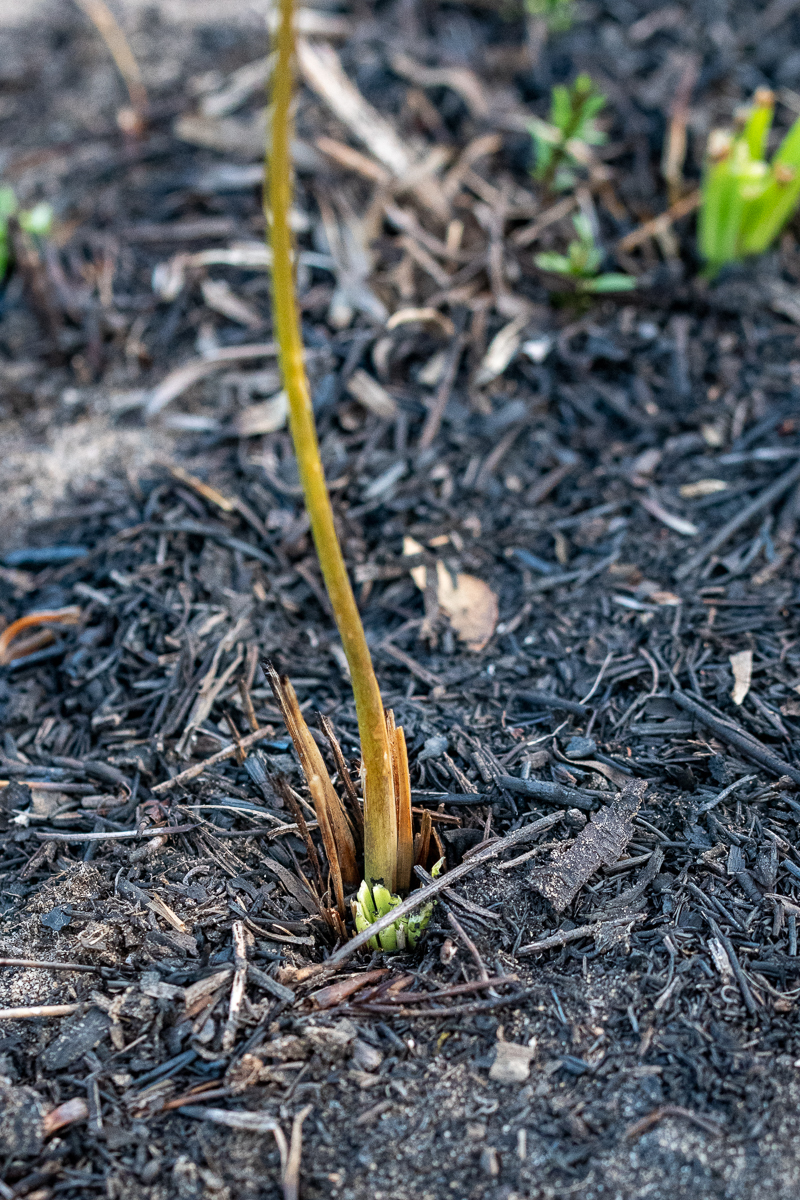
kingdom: Plantae
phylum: Tracheophyta
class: Liliopsida
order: Asparagales
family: Asparagaceae
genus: Drimia
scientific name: Drimia media
